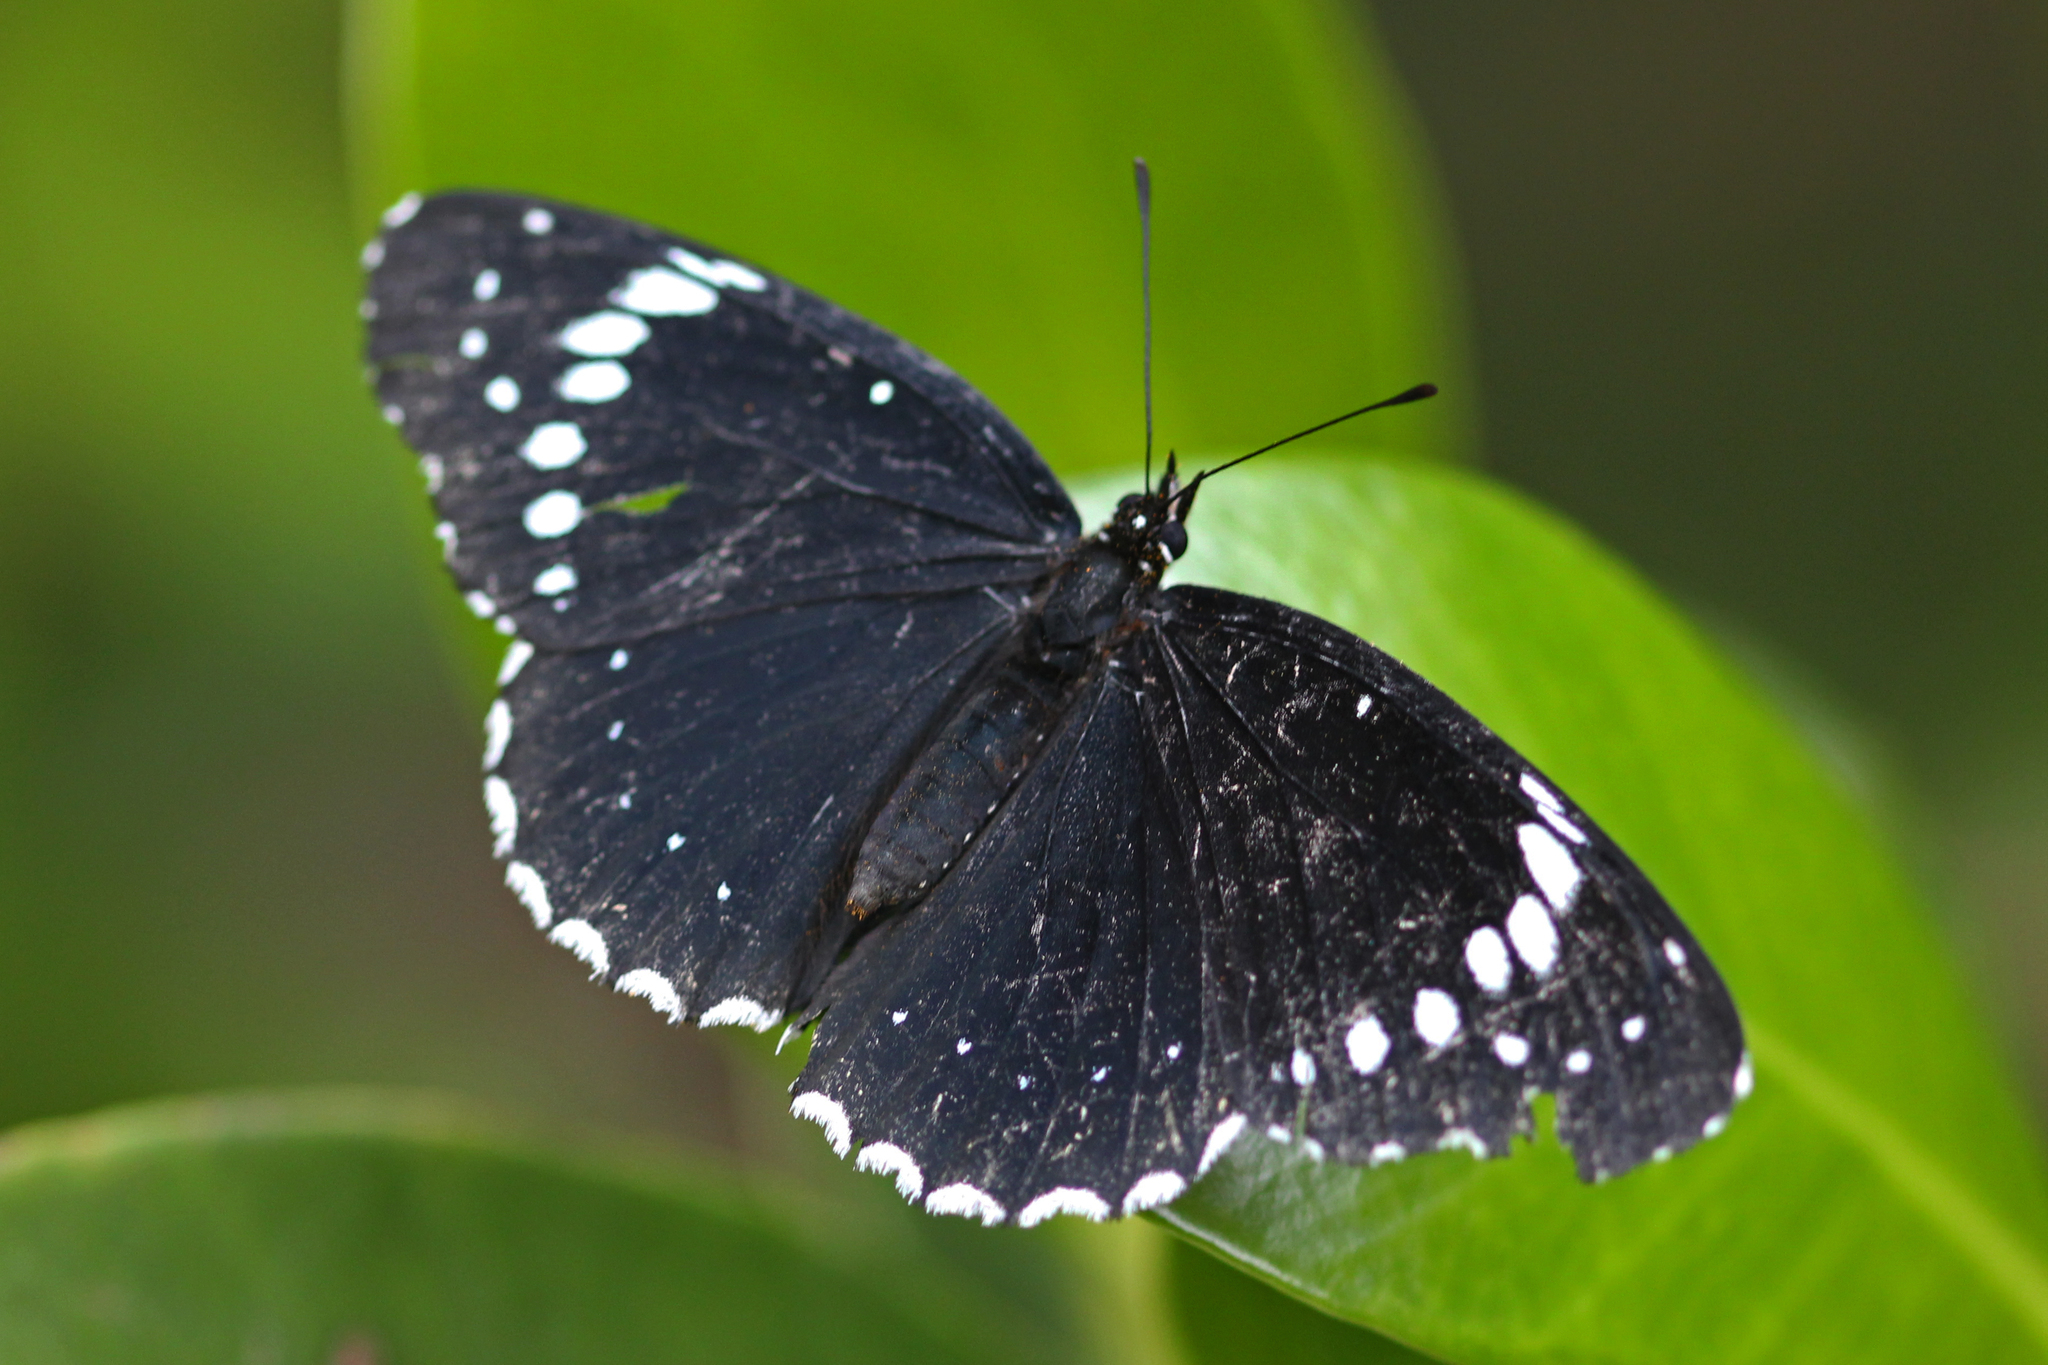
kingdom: Animalia
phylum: Arthropoda
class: Insecta
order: Lepidoptera
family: Nymphalidae
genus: Chlosyne
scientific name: Chlosyne hippodrome
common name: Simple patch
